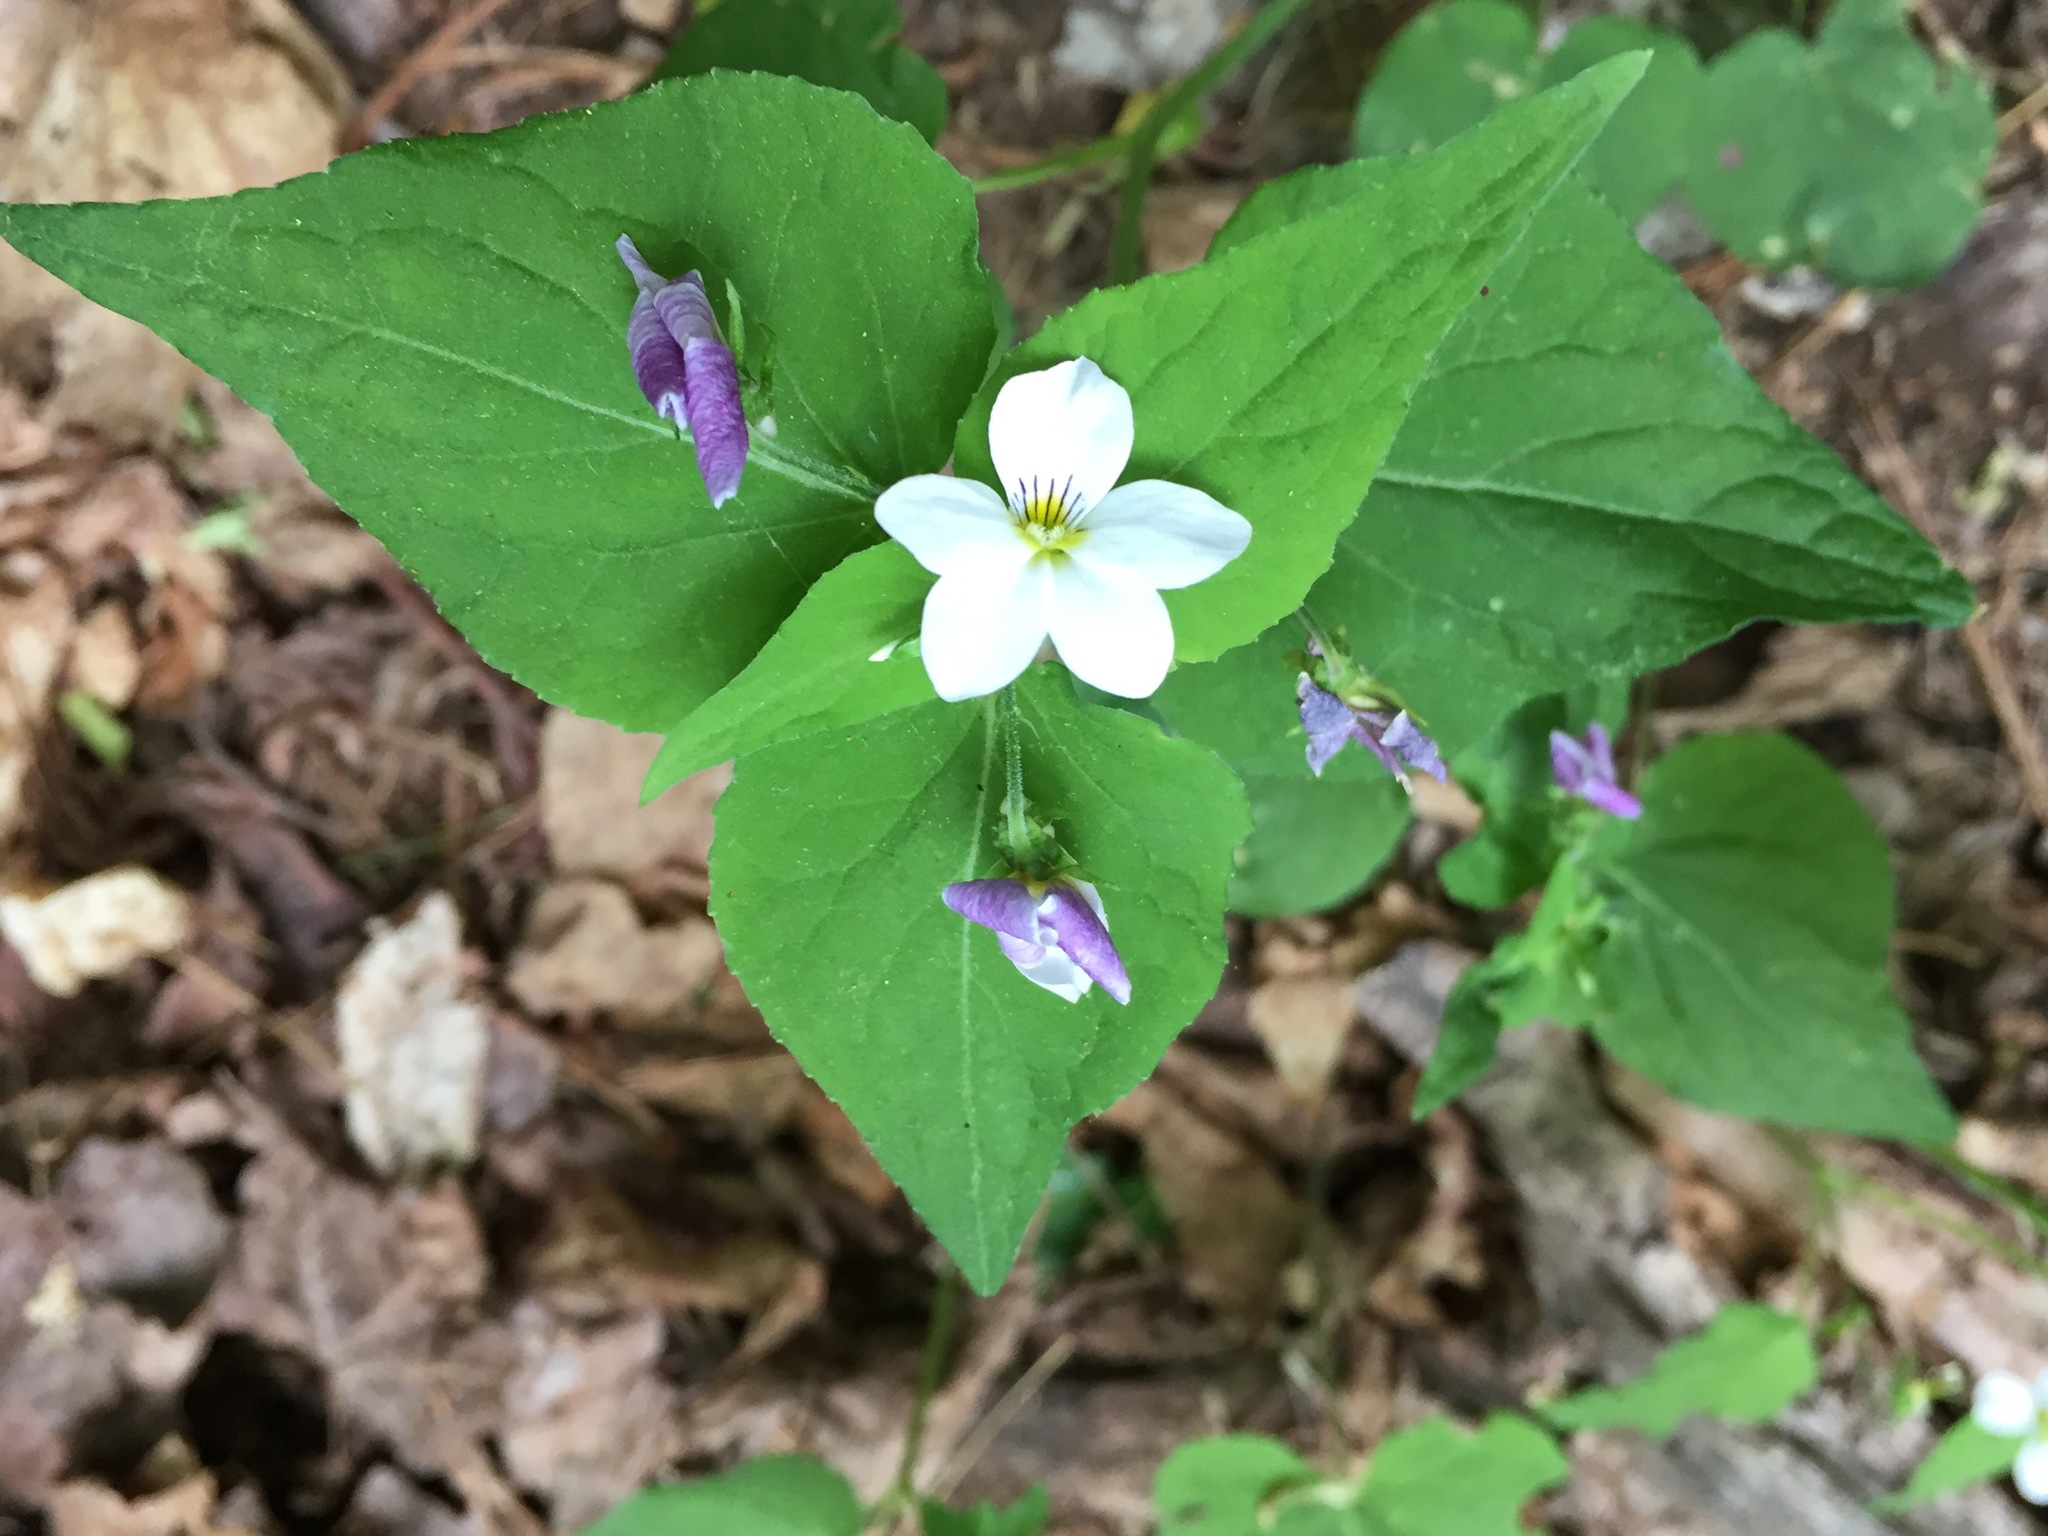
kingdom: Plantae
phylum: Tracheophyta
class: Magnoliopsida
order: Malpighiales
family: Violaceae
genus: Viola
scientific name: Viola canadensis
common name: Canada violet
